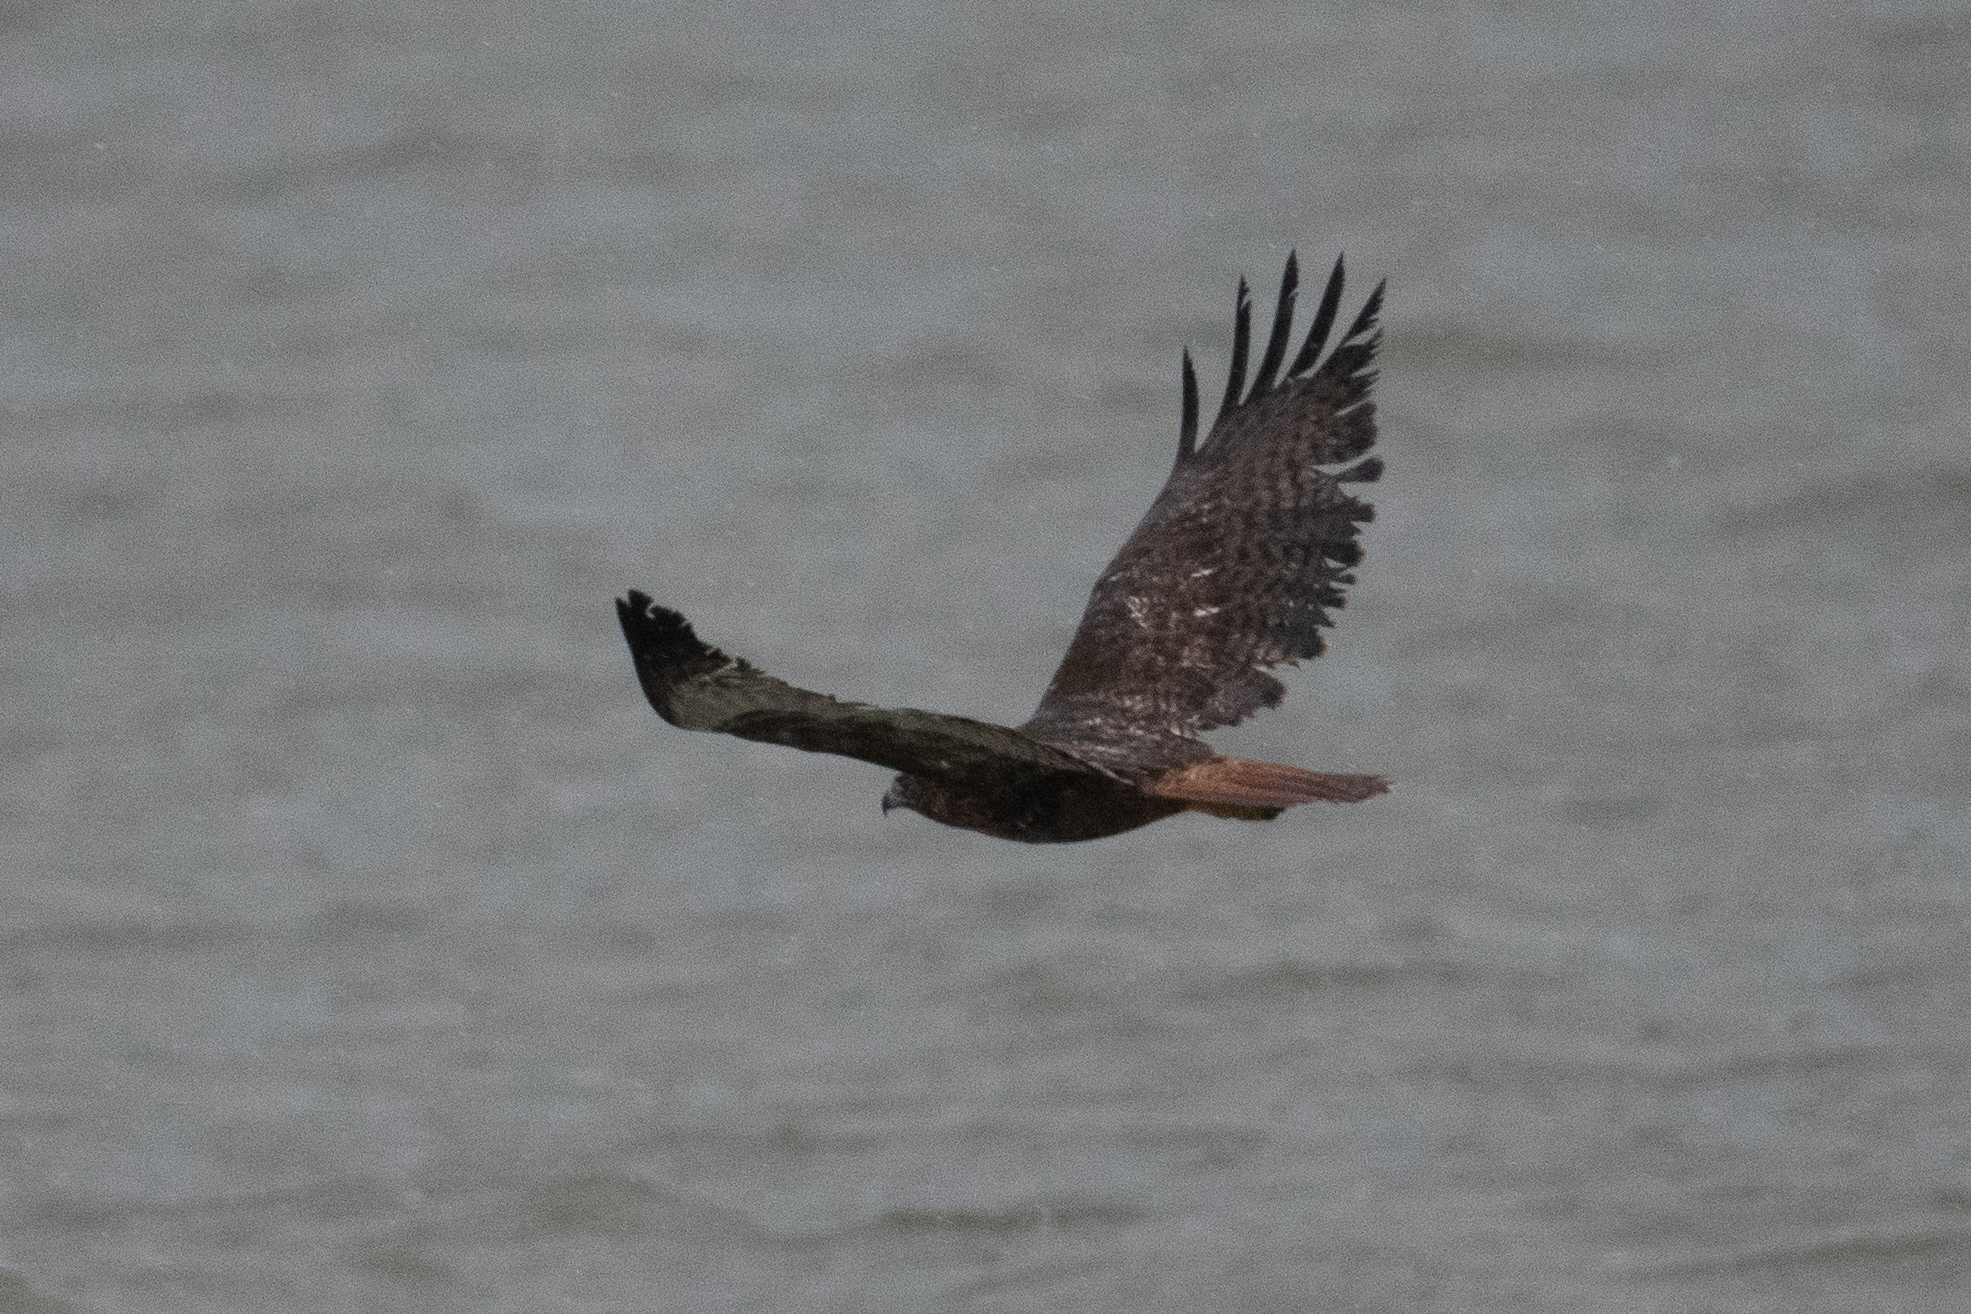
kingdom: Animalia
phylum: Chordata
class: Aves
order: Accipitriformes
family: Accipitridae
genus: Buteo
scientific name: Buteo jamaicensis
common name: Red-tailed hawk
